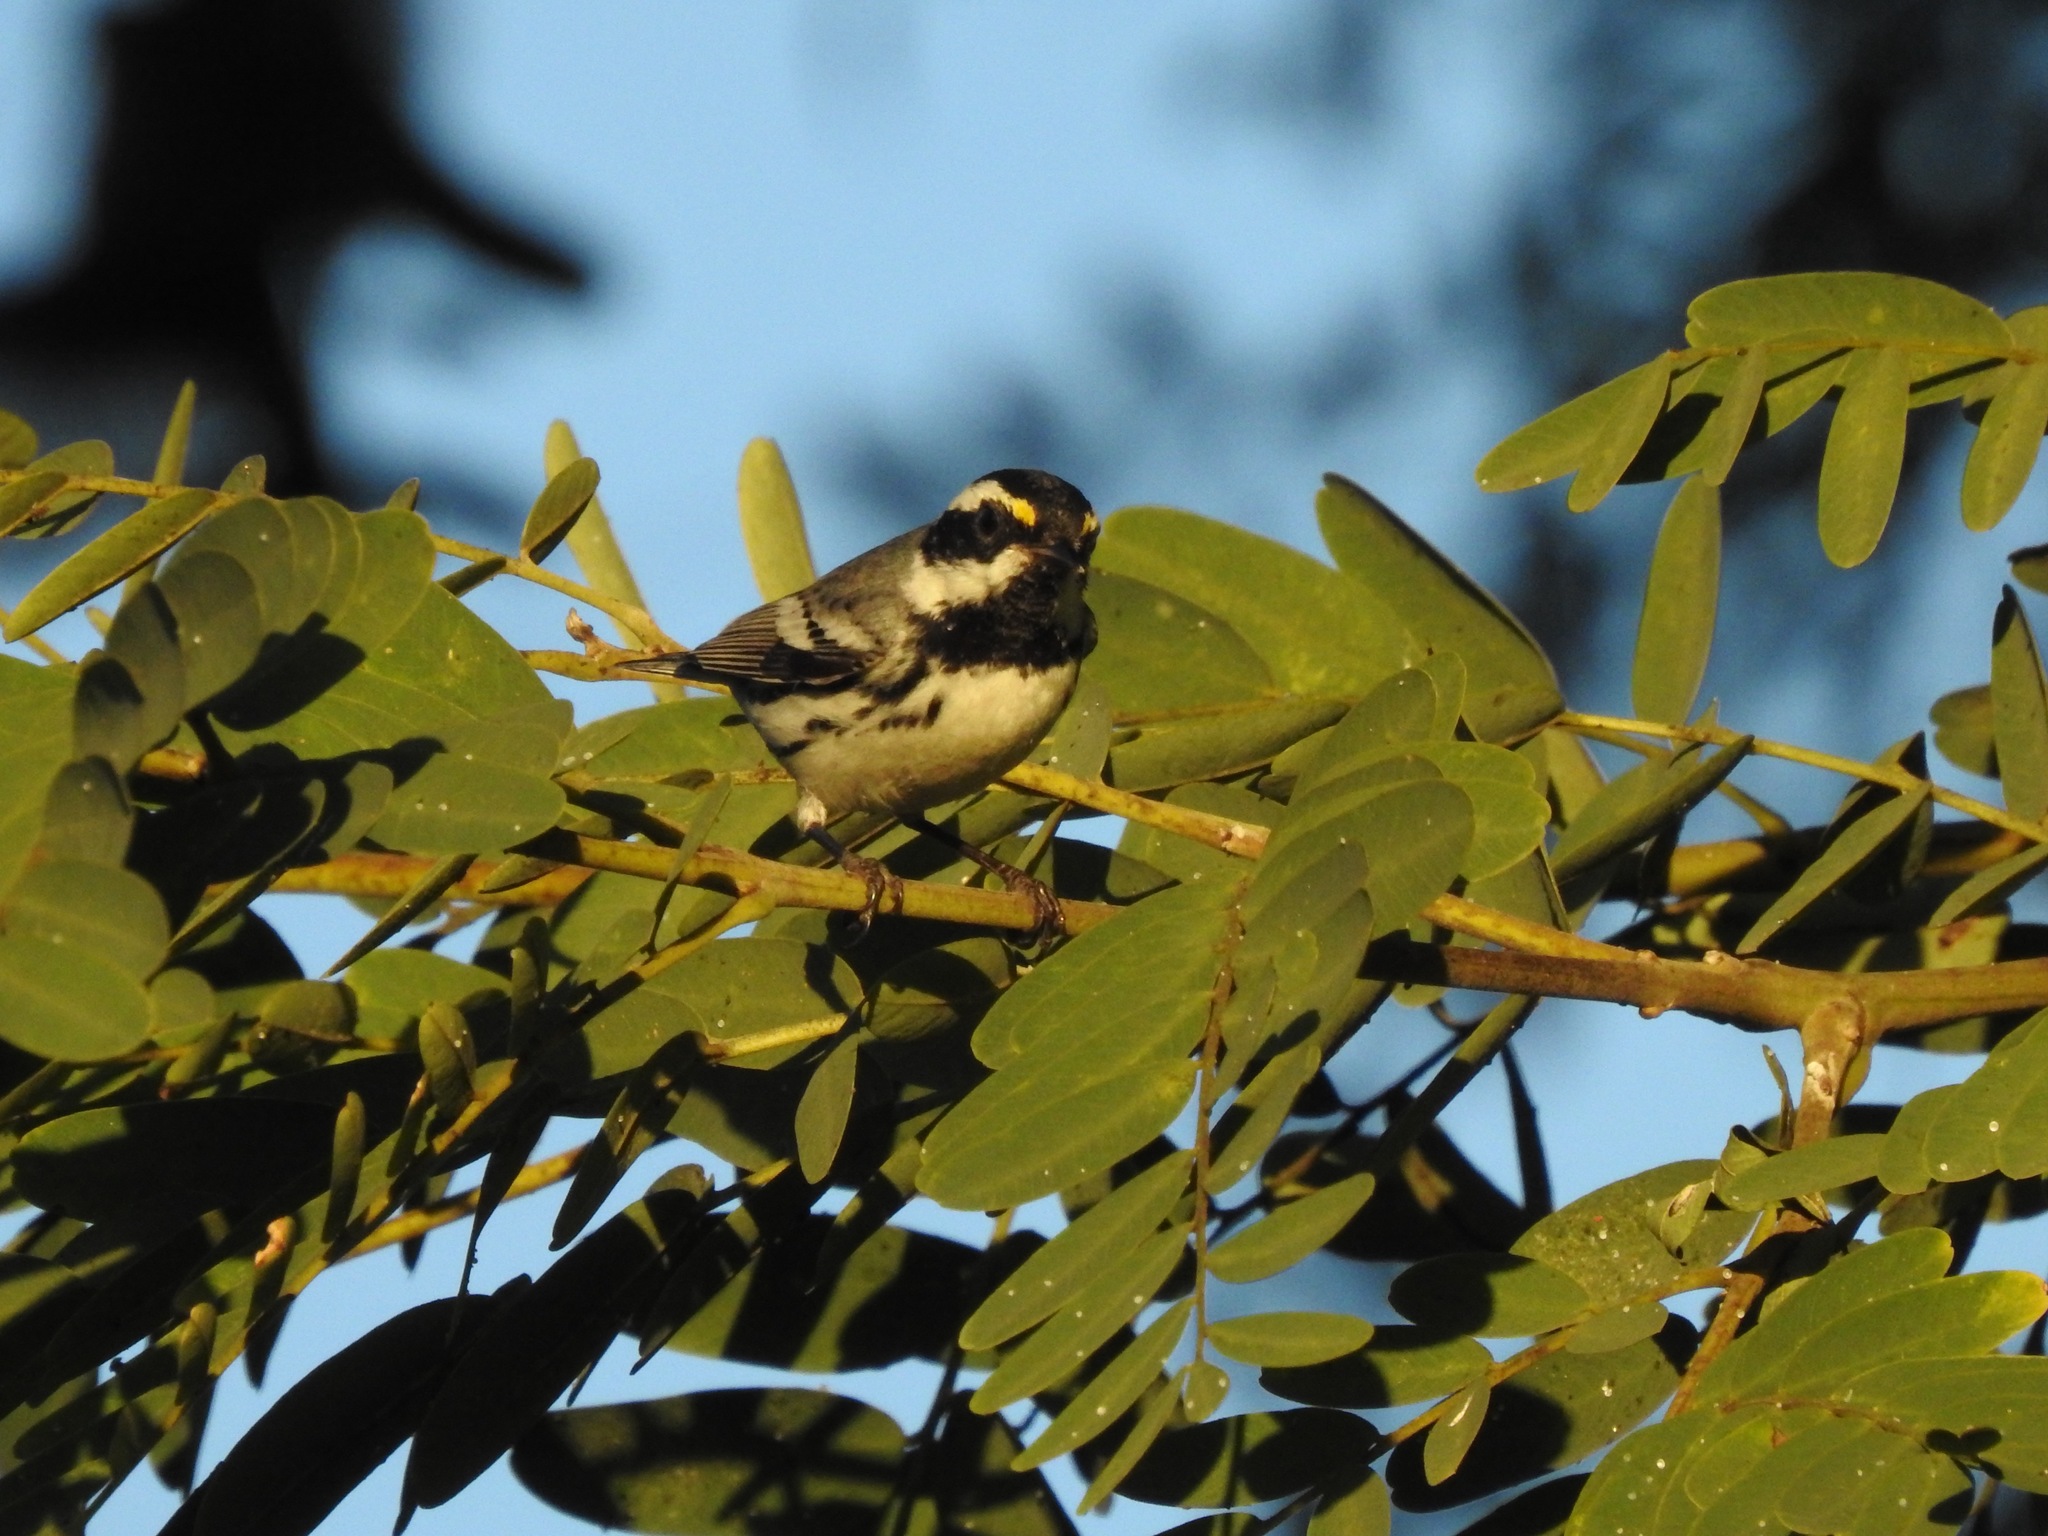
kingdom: Animalia
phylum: Chordata
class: Aves
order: Passeriformes
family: Parulidae
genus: Setophaga
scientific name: Setophaga nigrescens
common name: Black-throated gray warbler
